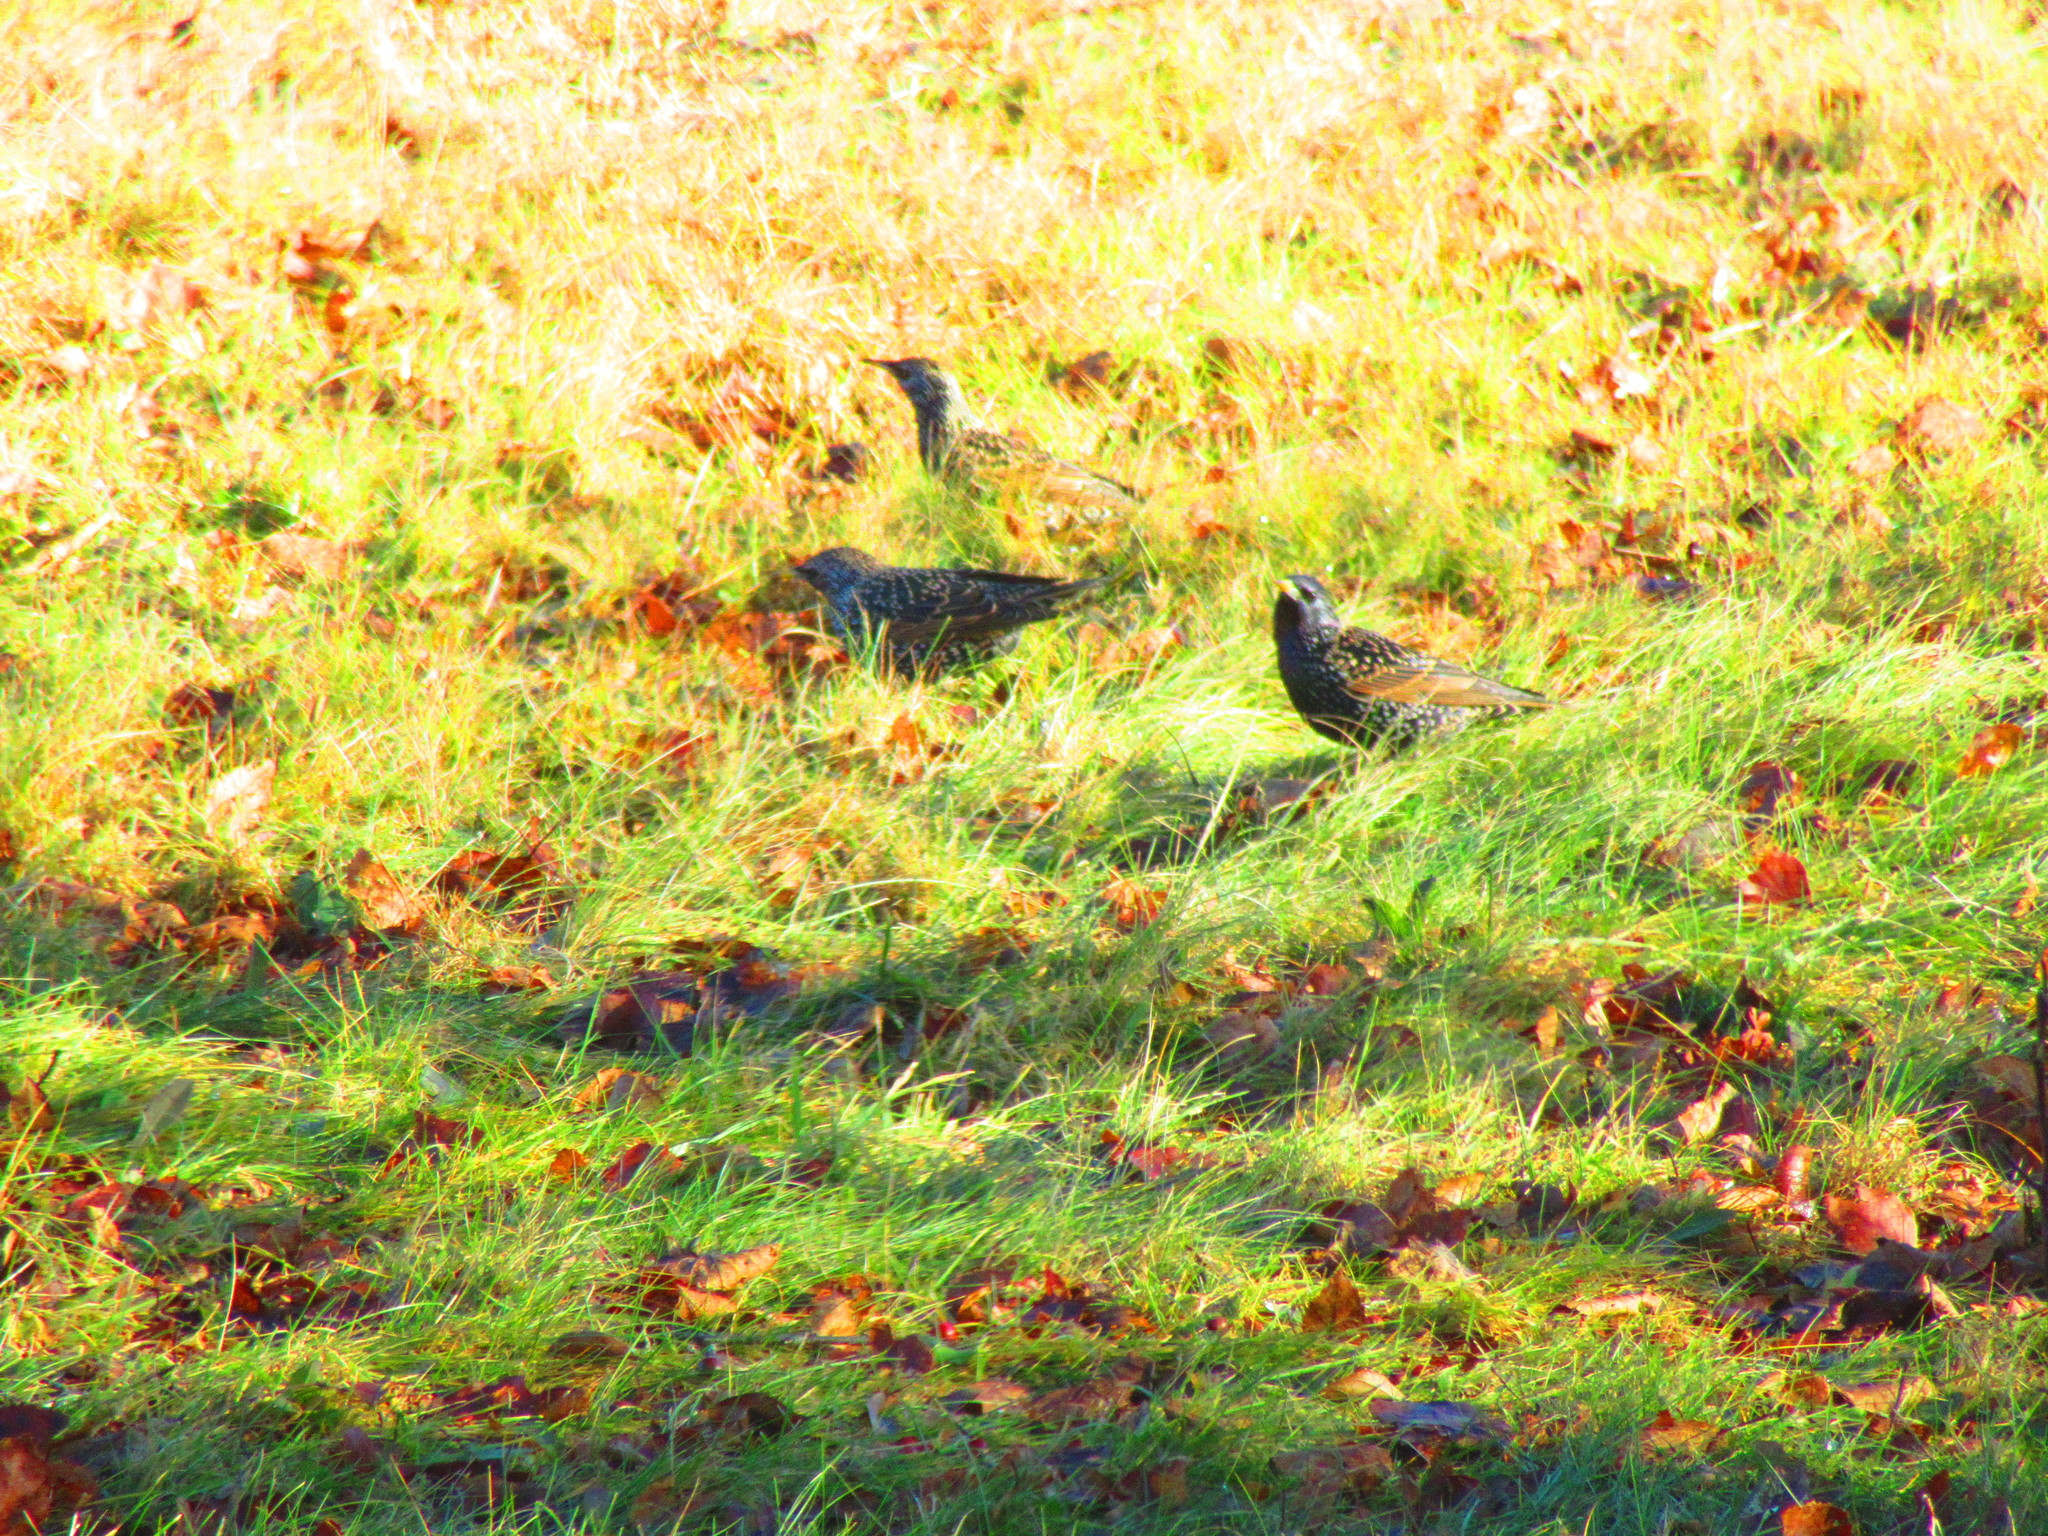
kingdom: Animalia
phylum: Chordata
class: Aves
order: Passeriformes
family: Sturnidae
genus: Sturnus
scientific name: Sturnus vulgaris
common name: Common starling
